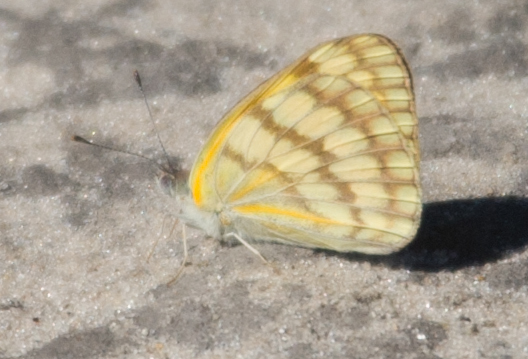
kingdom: Animalia
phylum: Arthropoda
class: Insecta
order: Lepidoptera
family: Pieridae
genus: Colotis
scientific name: Colotis vesta
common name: Veined golden arab
